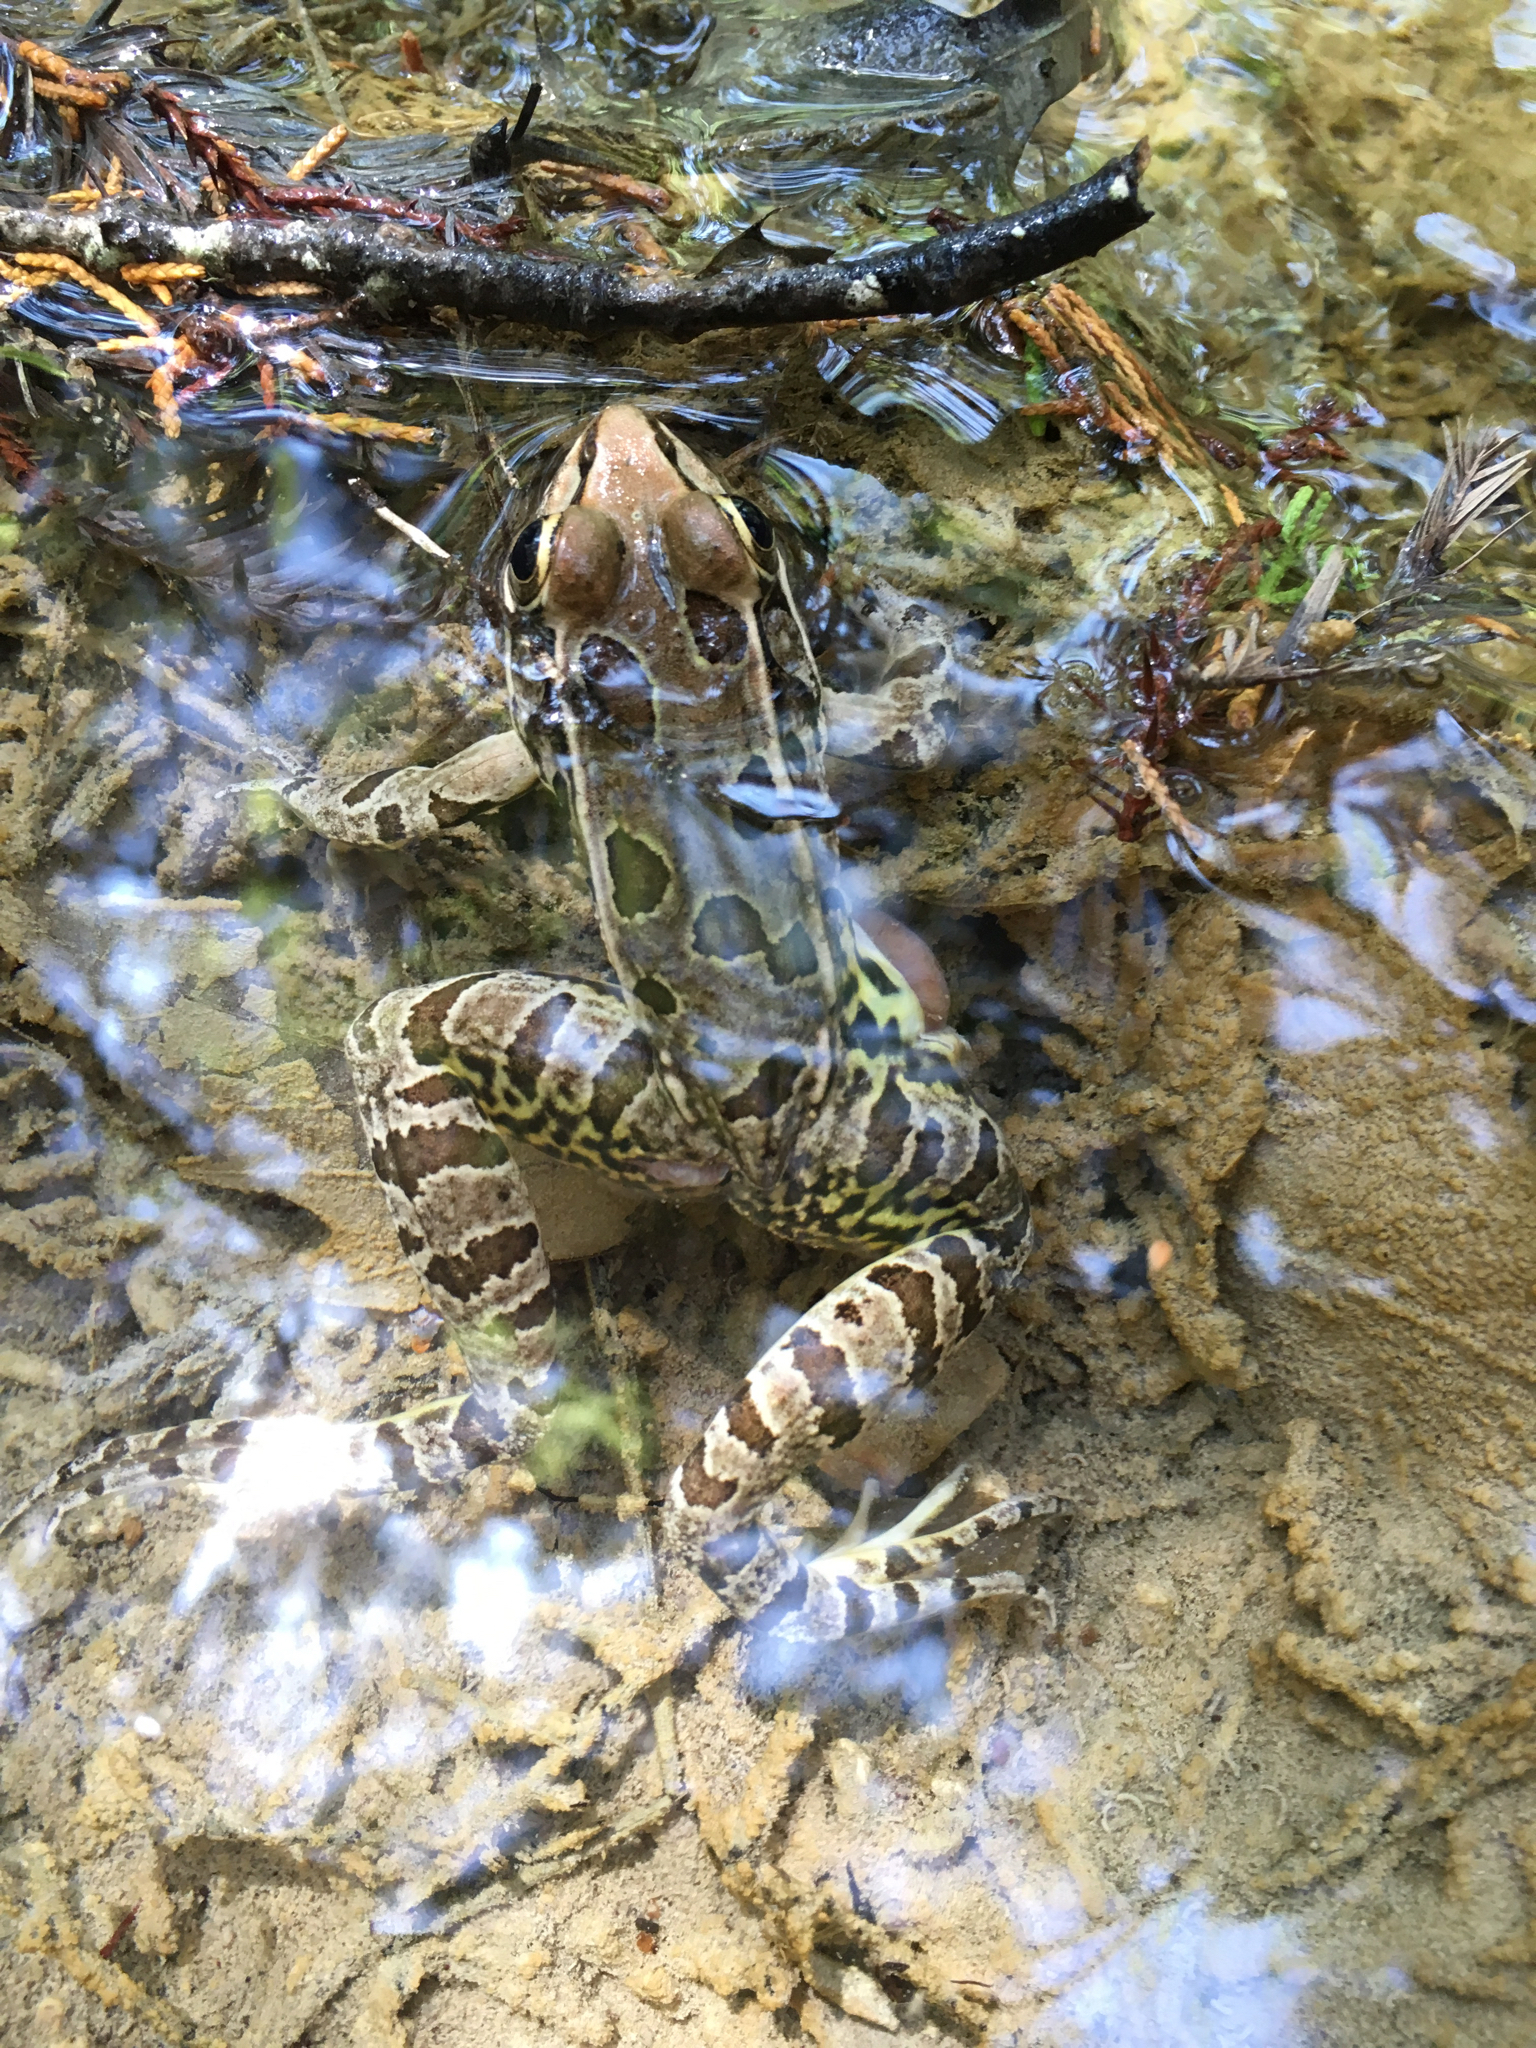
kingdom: Animalia
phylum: Chordata
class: Amphibia
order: Anura
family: Ranidae
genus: Lithobates
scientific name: Lithobates berlandieri
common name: Rio grande leopard frog
